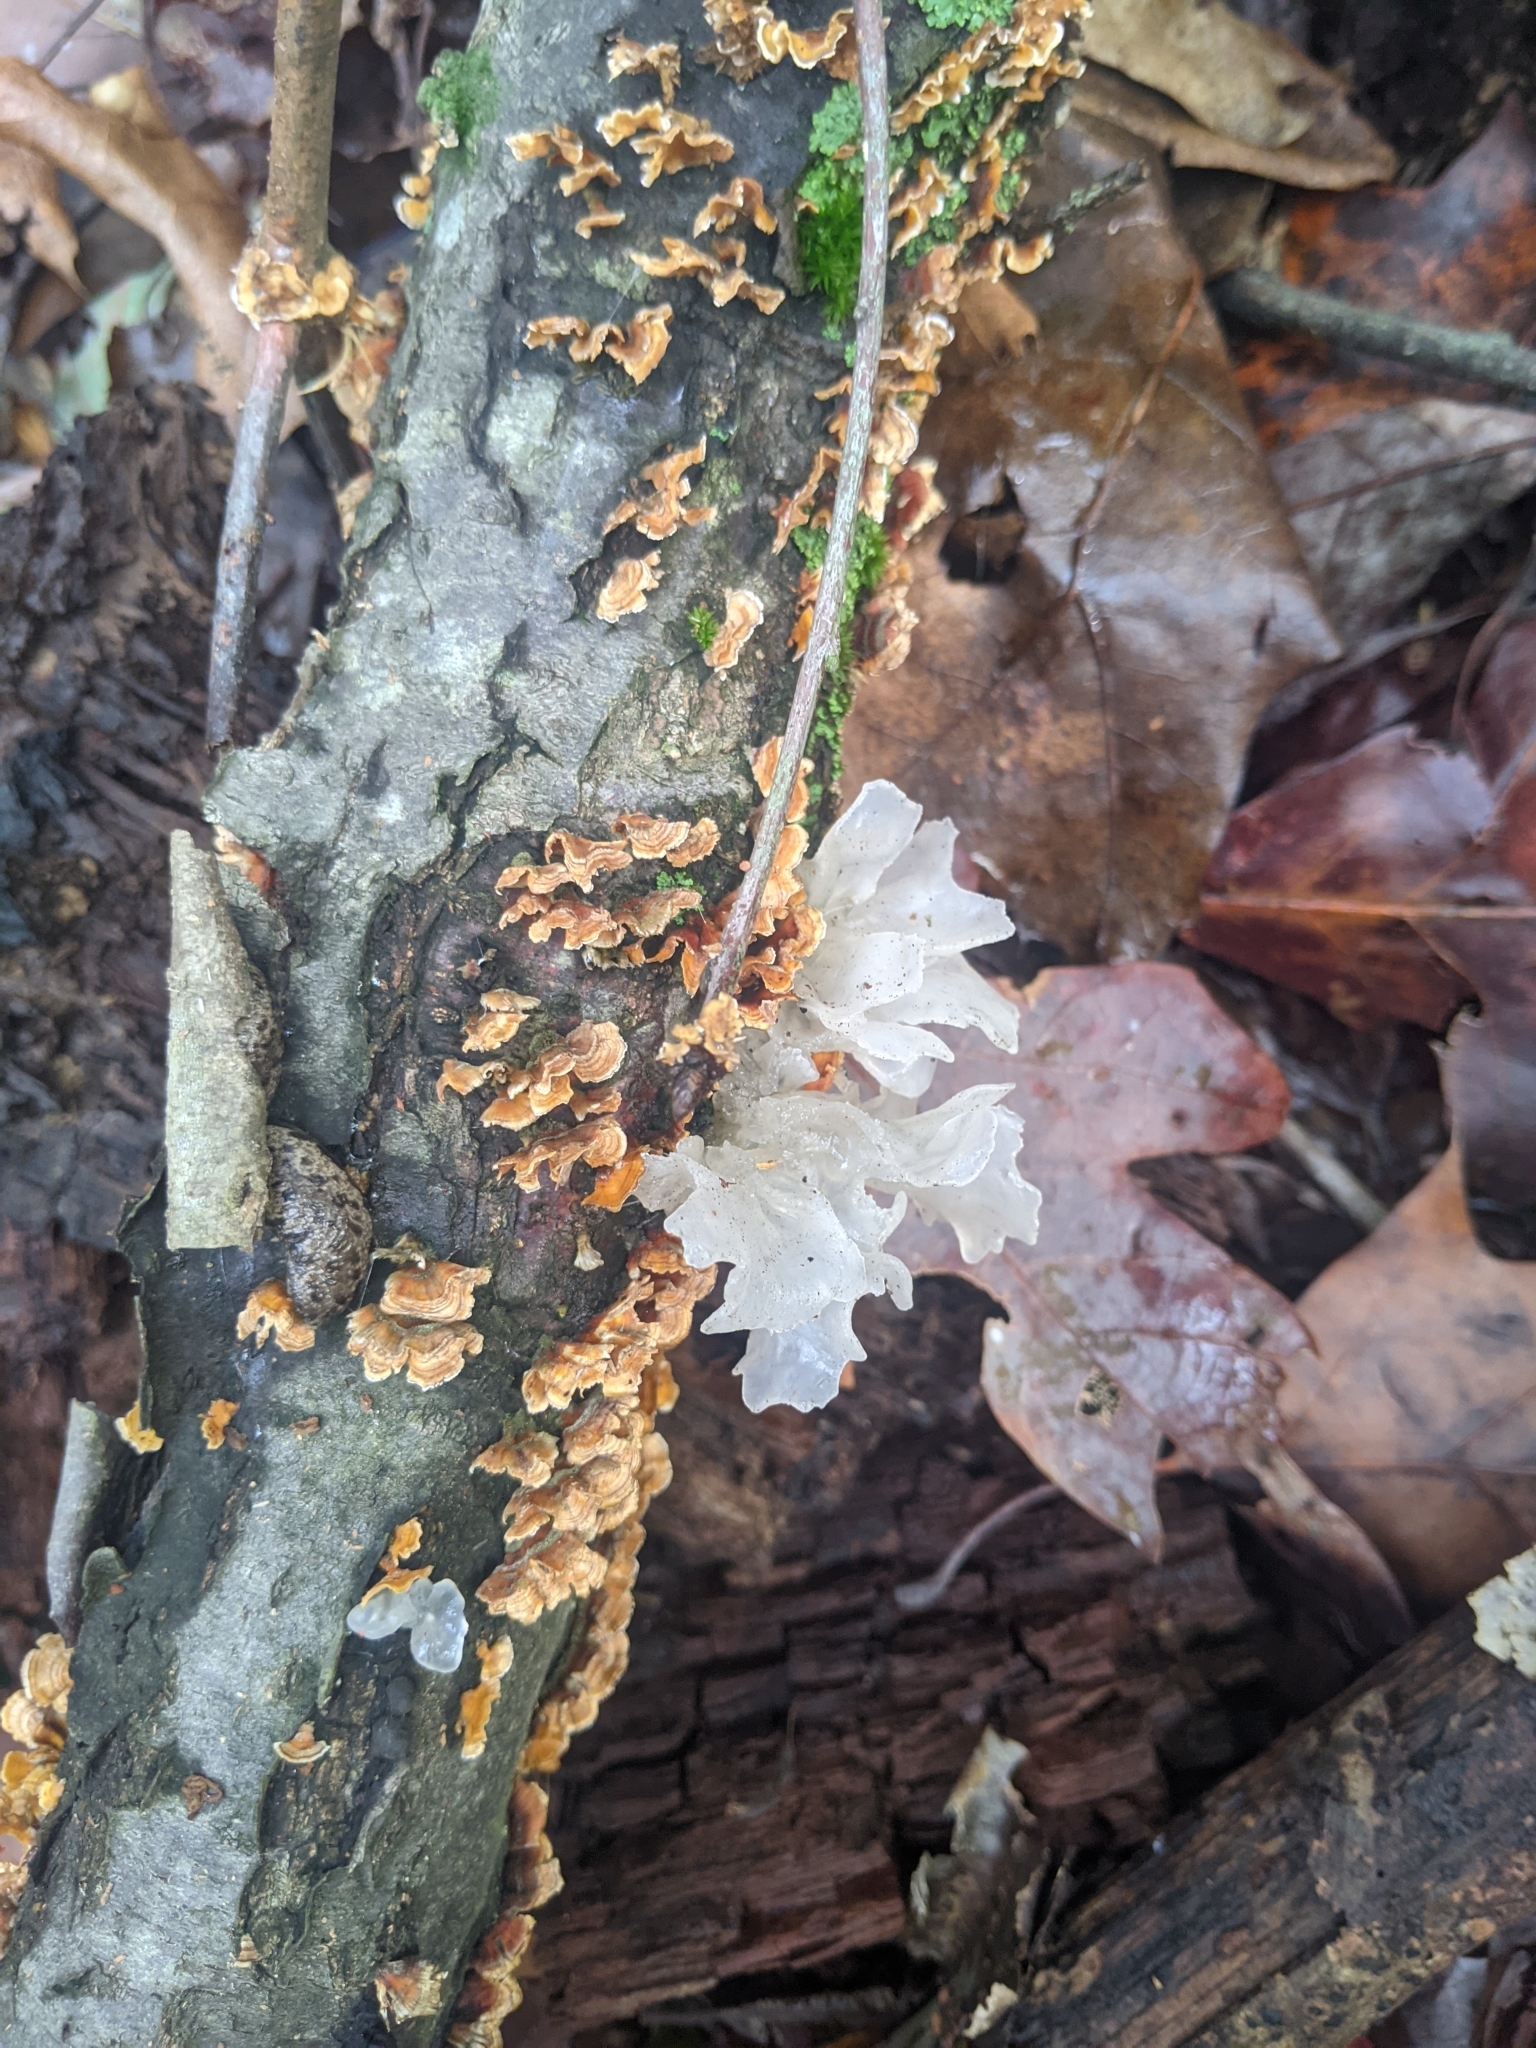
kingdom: Fungi
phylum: Basidiomycota
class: Tremellomycetes
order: Tremellales
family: Tremellaceae
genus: Tremella
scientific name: Tremella fuciformis
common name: Snow fungus
